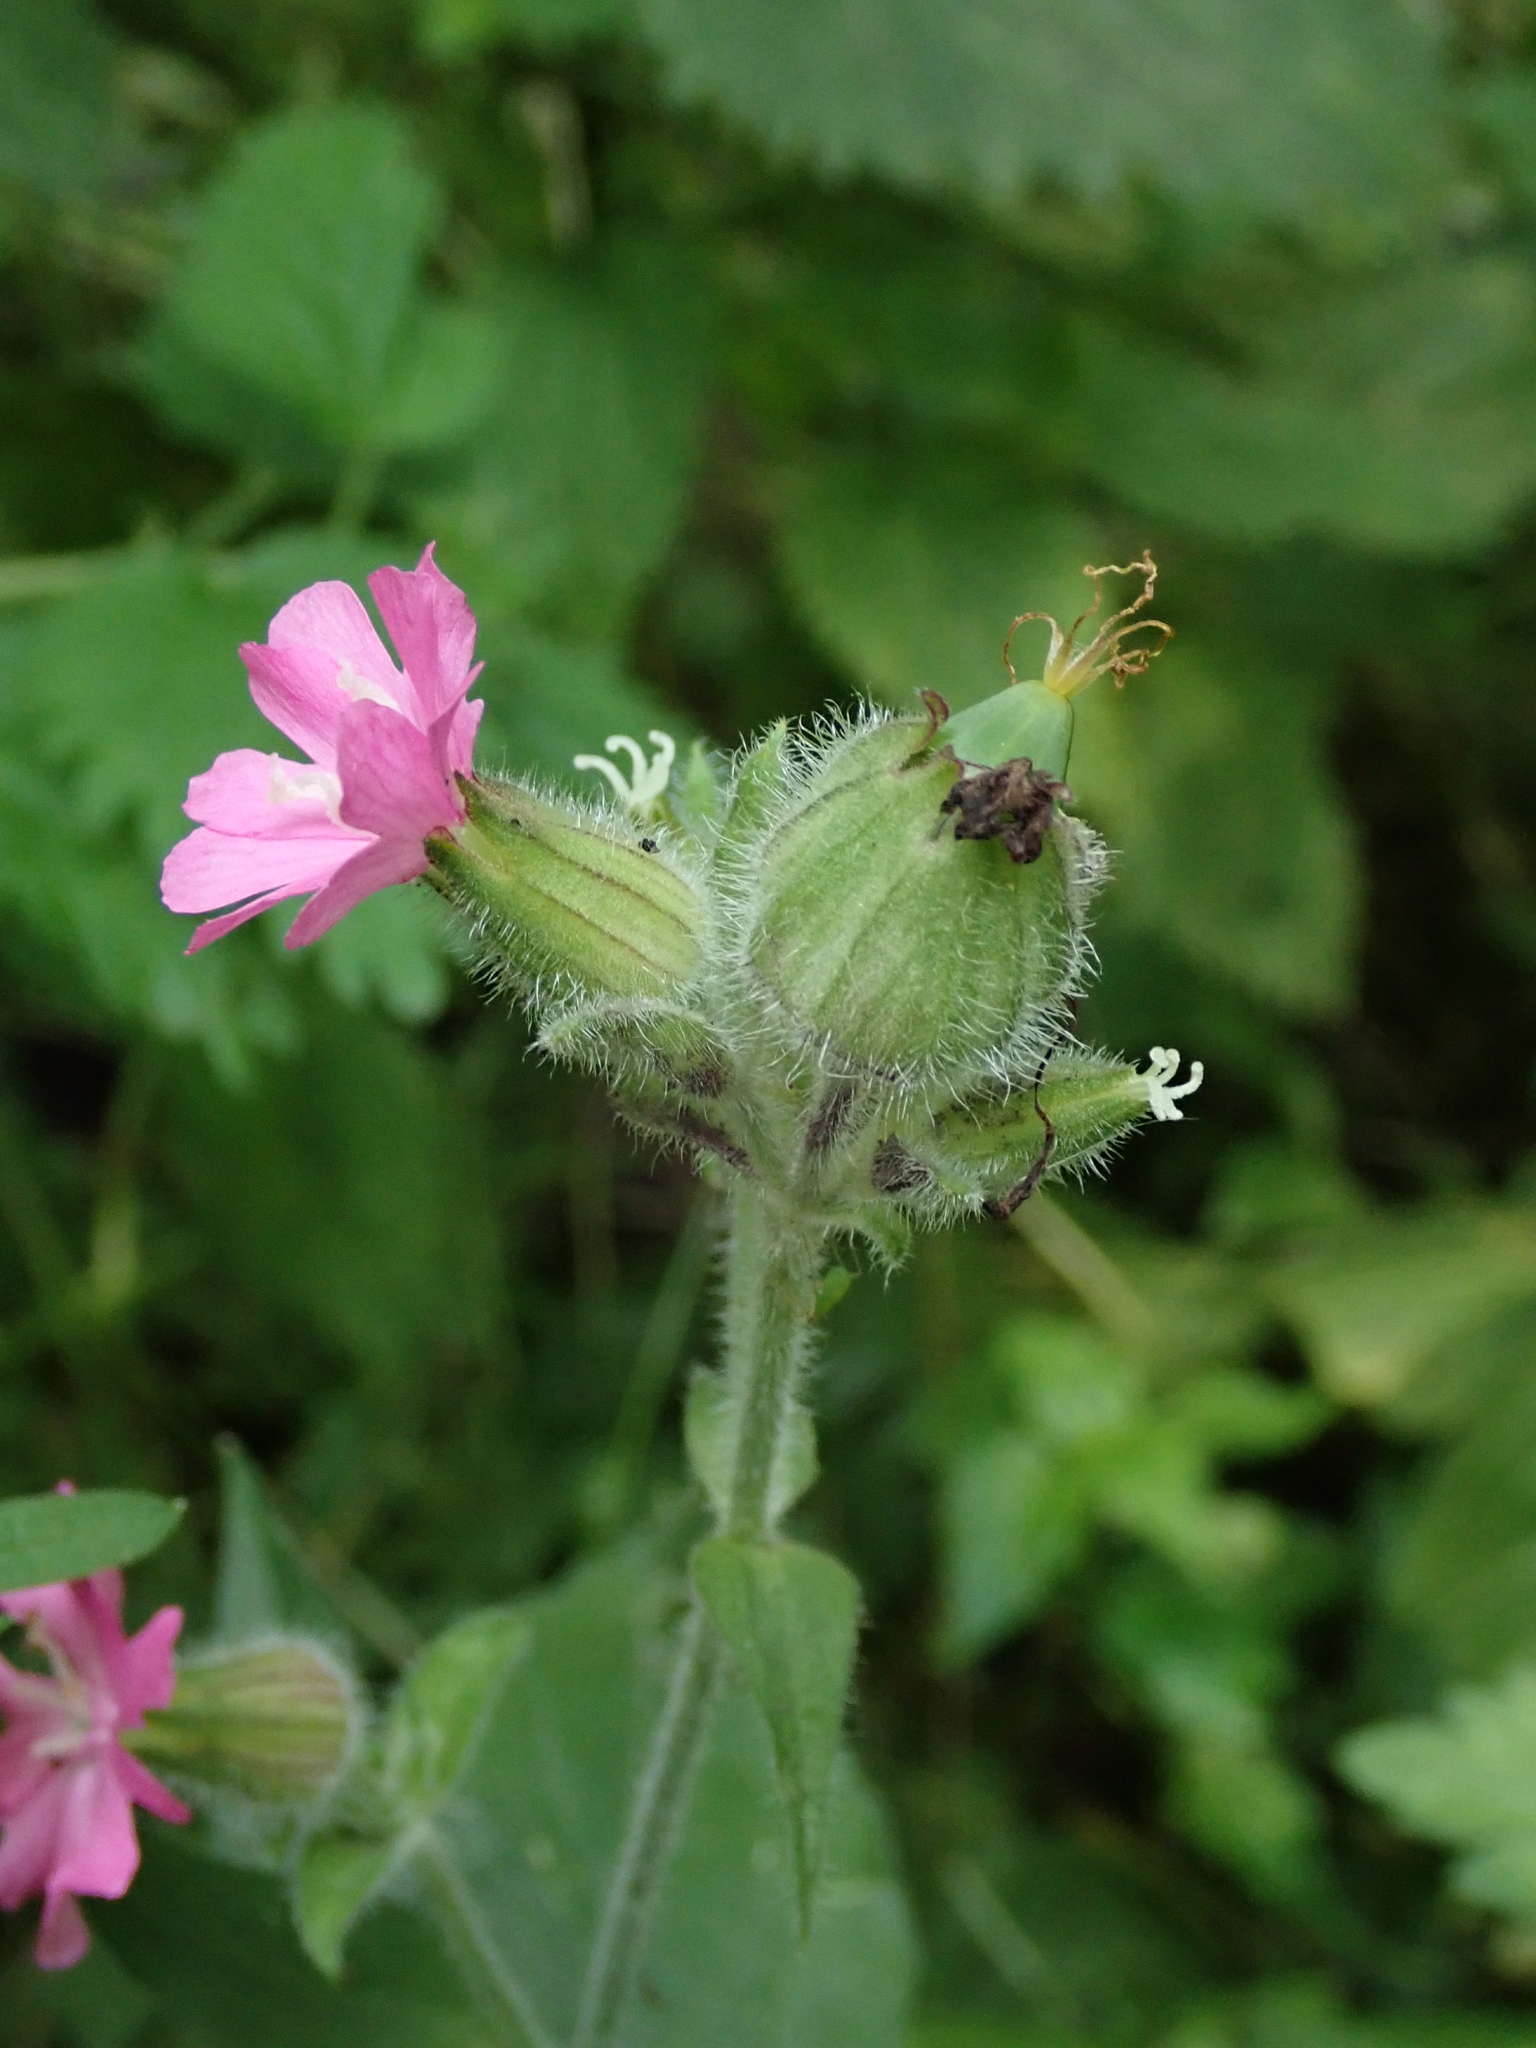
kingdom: Plantae
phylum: Tracheophyta
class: Magnoliopsida
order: Caryophyllales
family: Caryophyllaceae
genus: Silene
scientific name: Silene dioica
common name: Red campion
